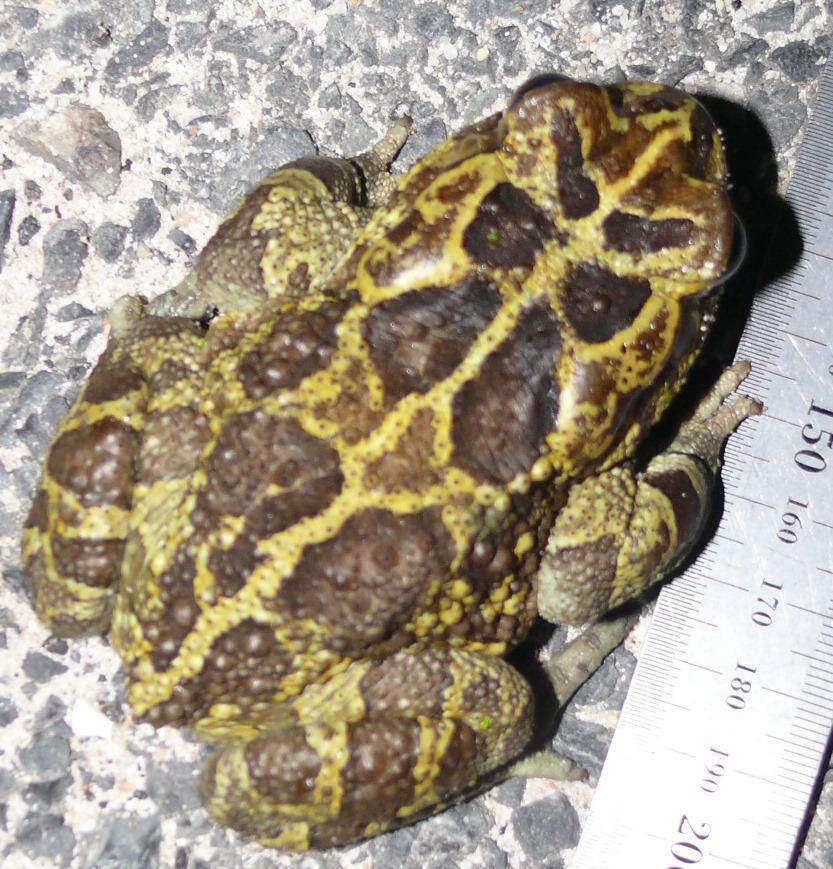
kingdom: Animalia
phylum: Chordata
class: Amphibia
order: Anura
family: Bufonidae
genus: Sclerophrys
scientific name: Sclerophrys pantherina
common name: Panther toad
